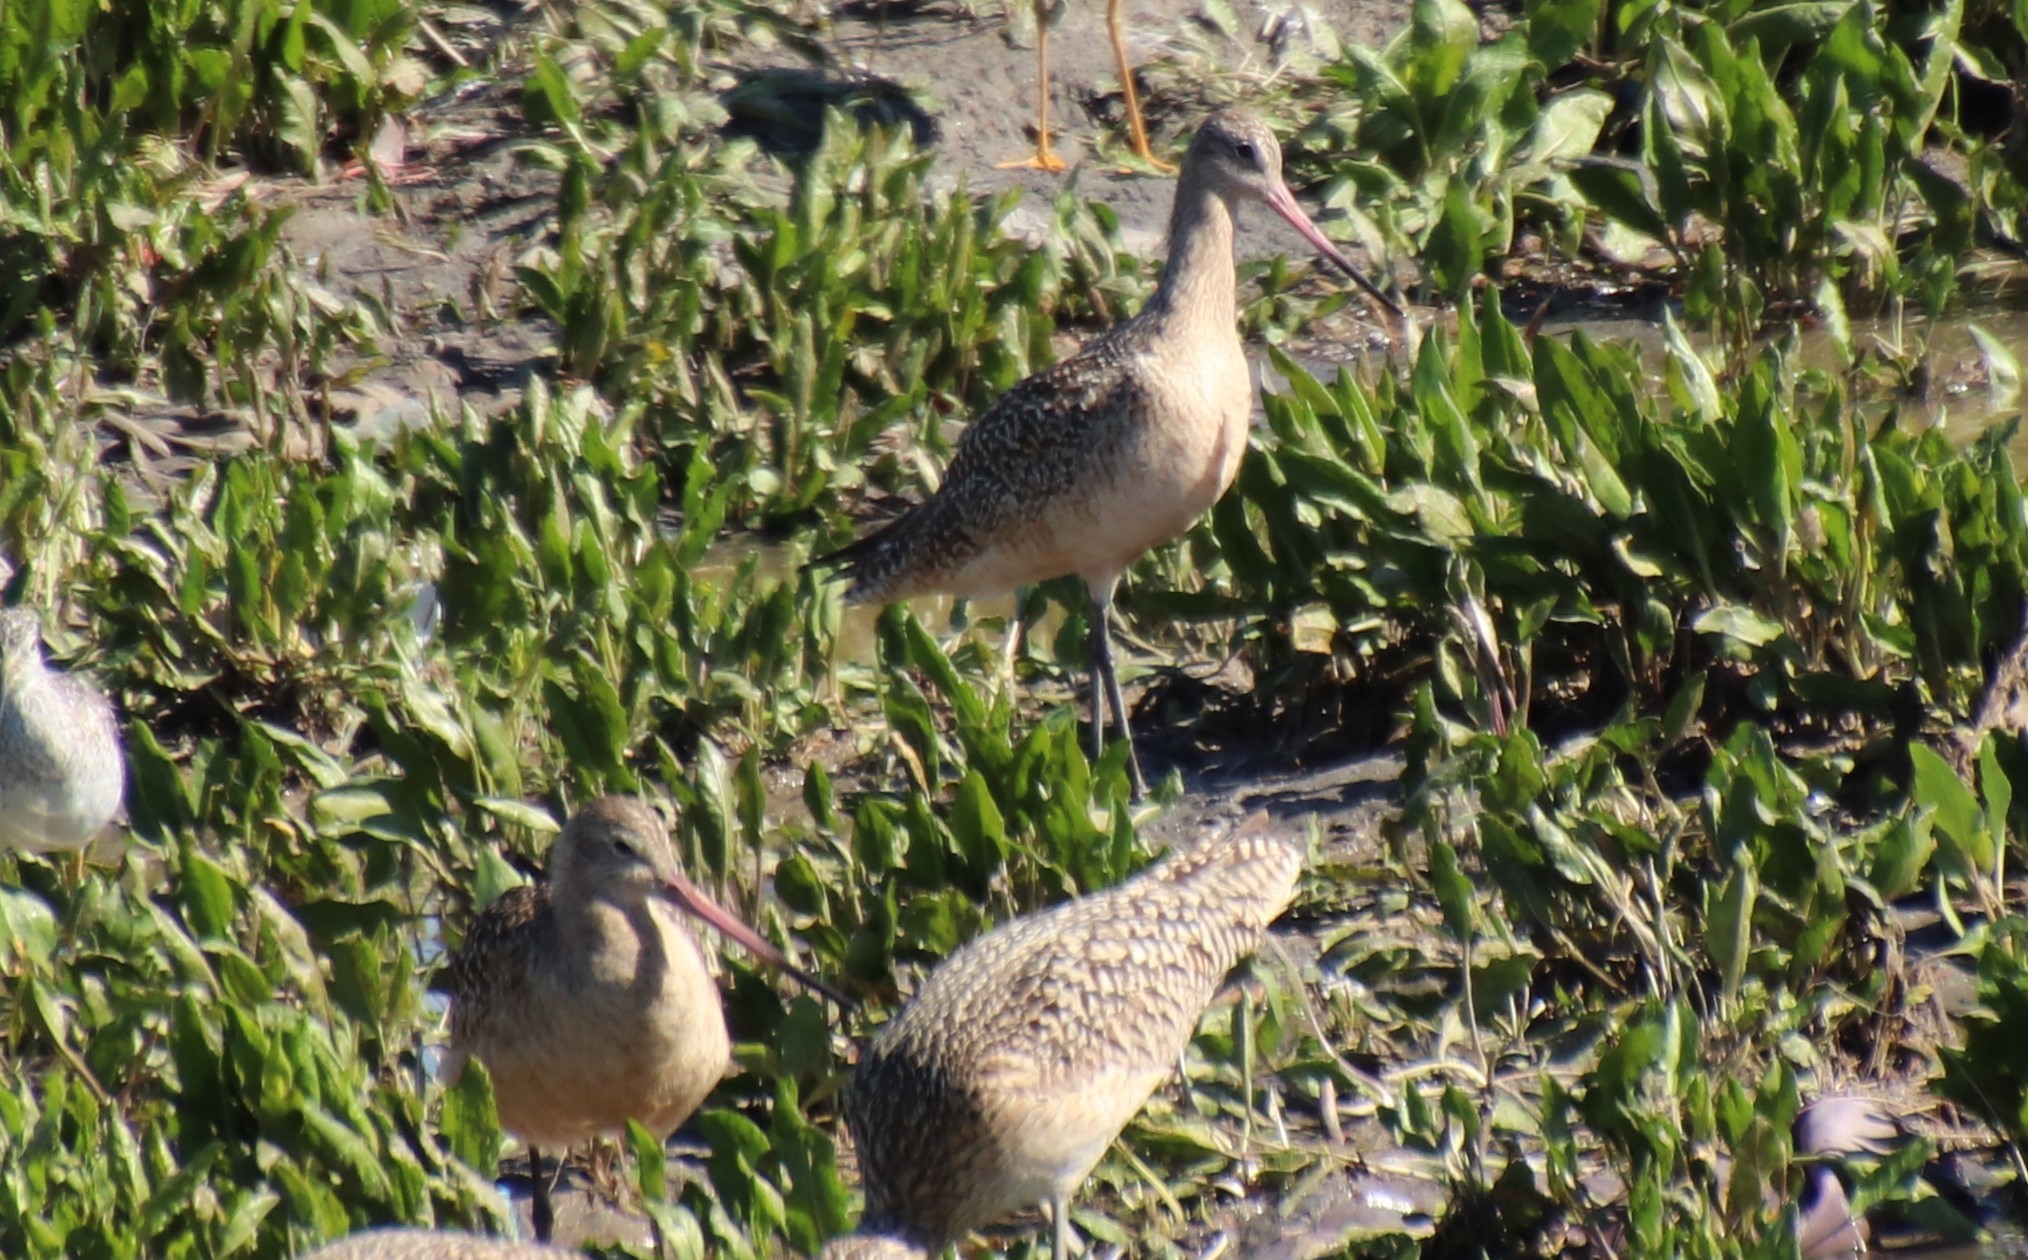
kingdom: Animalia
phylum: Chordata
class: Aves
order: Charadriiformes
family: Scolopacidae
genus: Limosa
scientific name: Limosa fedoa
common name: Marbled godwit
